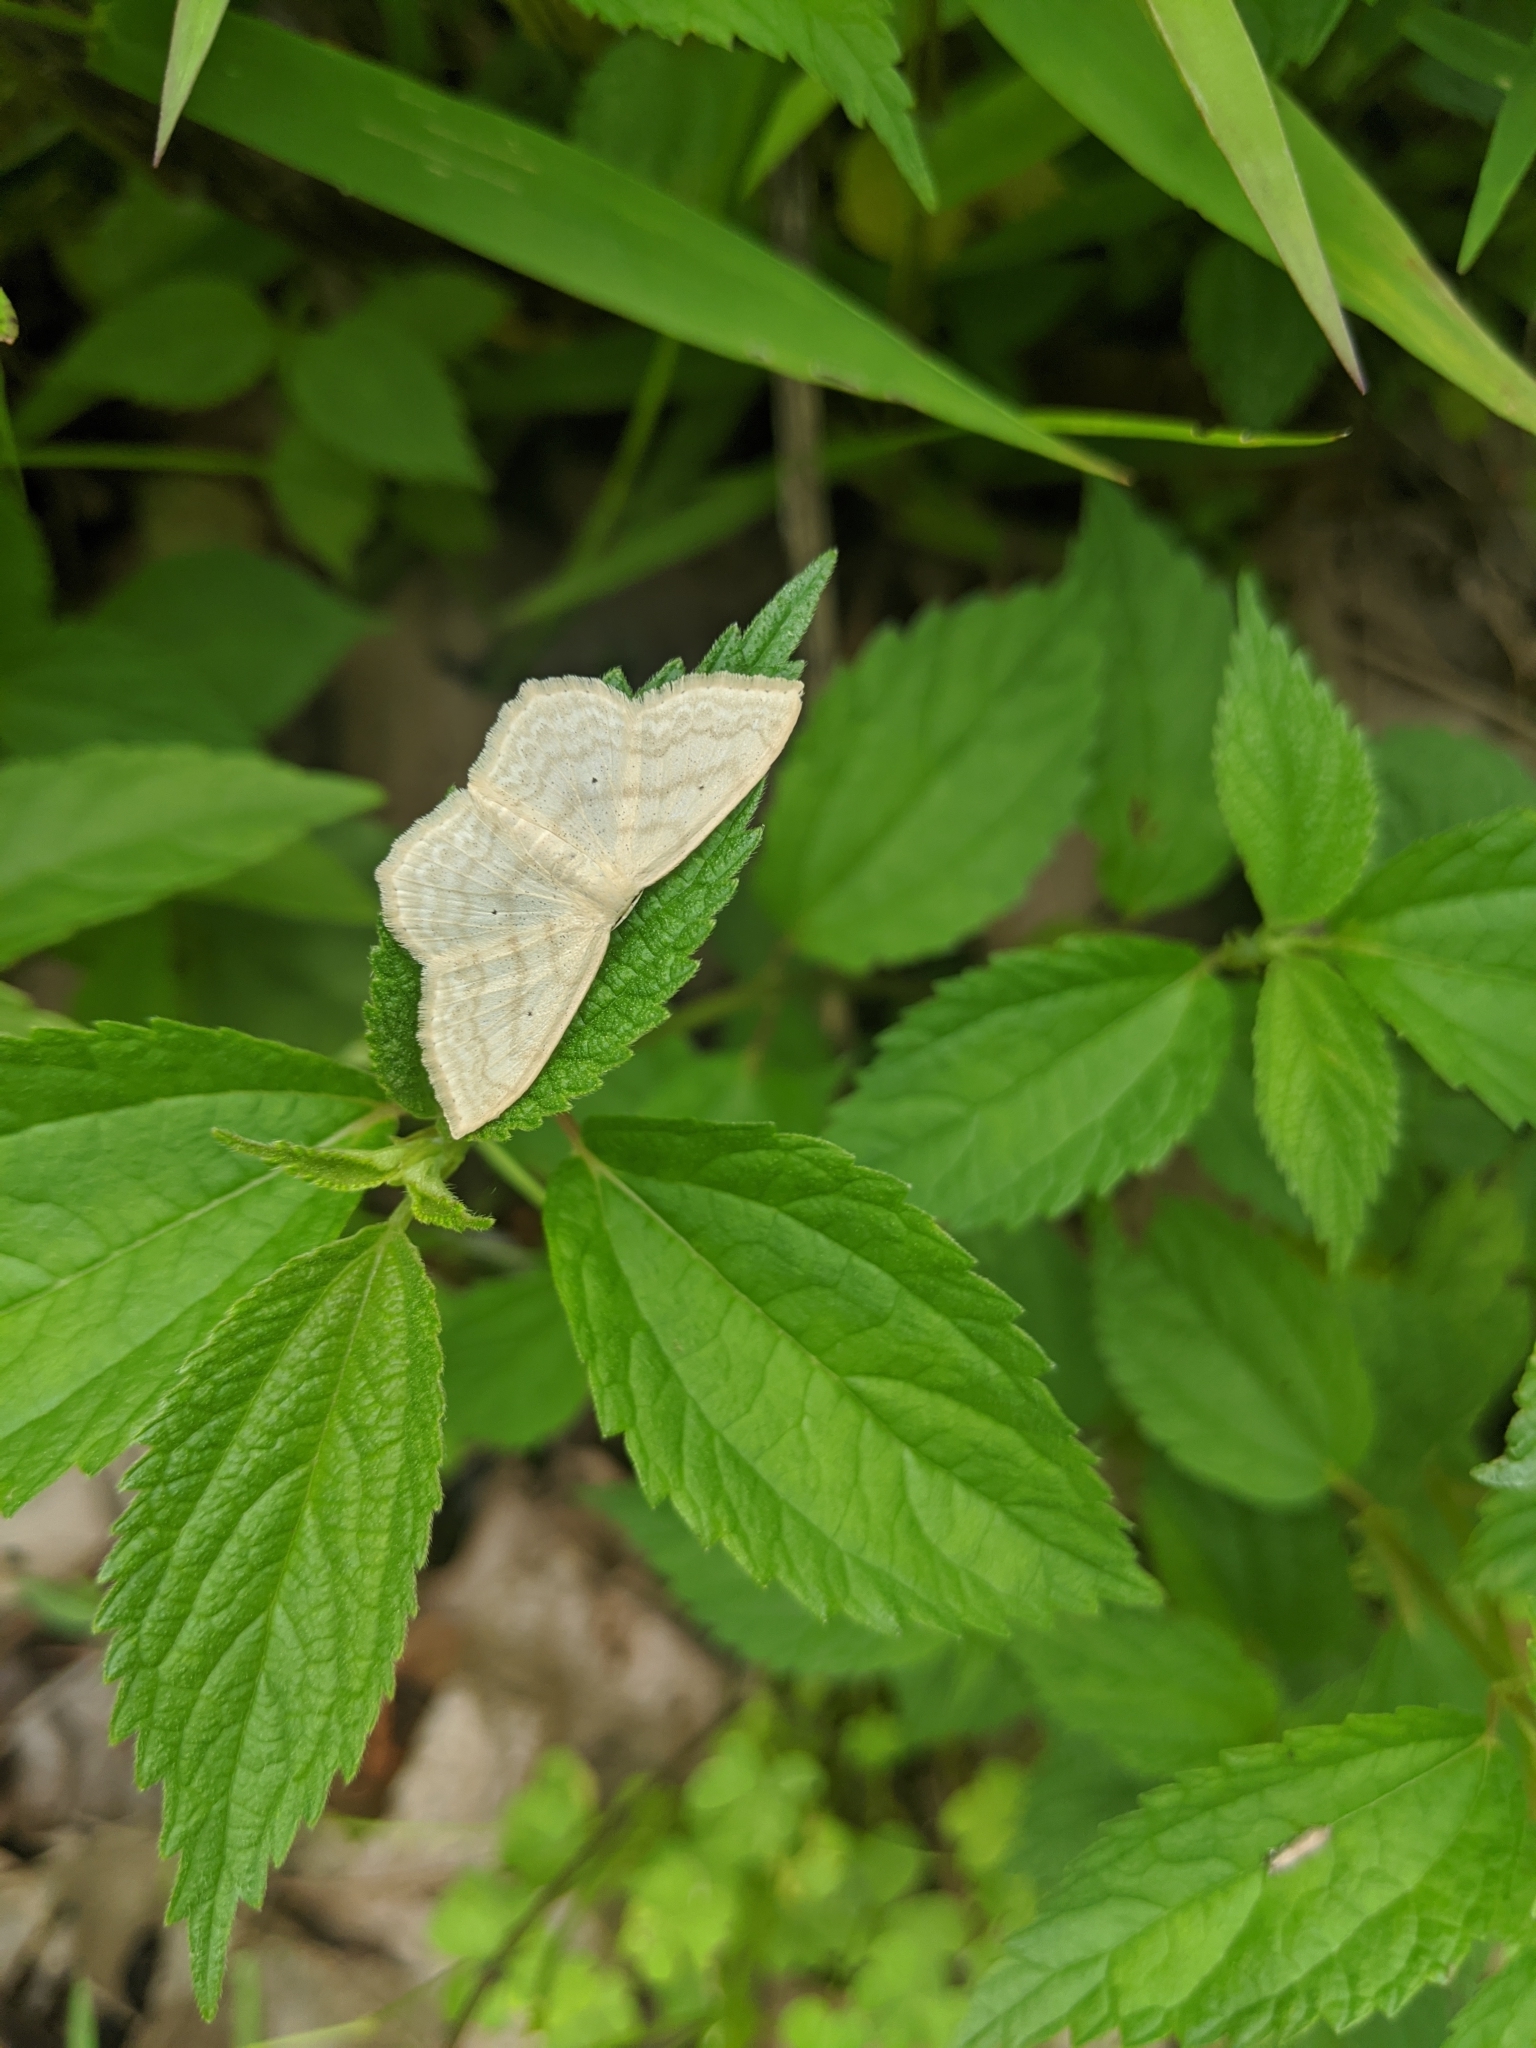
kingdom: Animalia
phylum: Arthropoda
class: Insecta
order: Lepidoptera
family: Geometridae
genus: Scopula
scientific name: Scopula limboundata
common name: Large lace border
